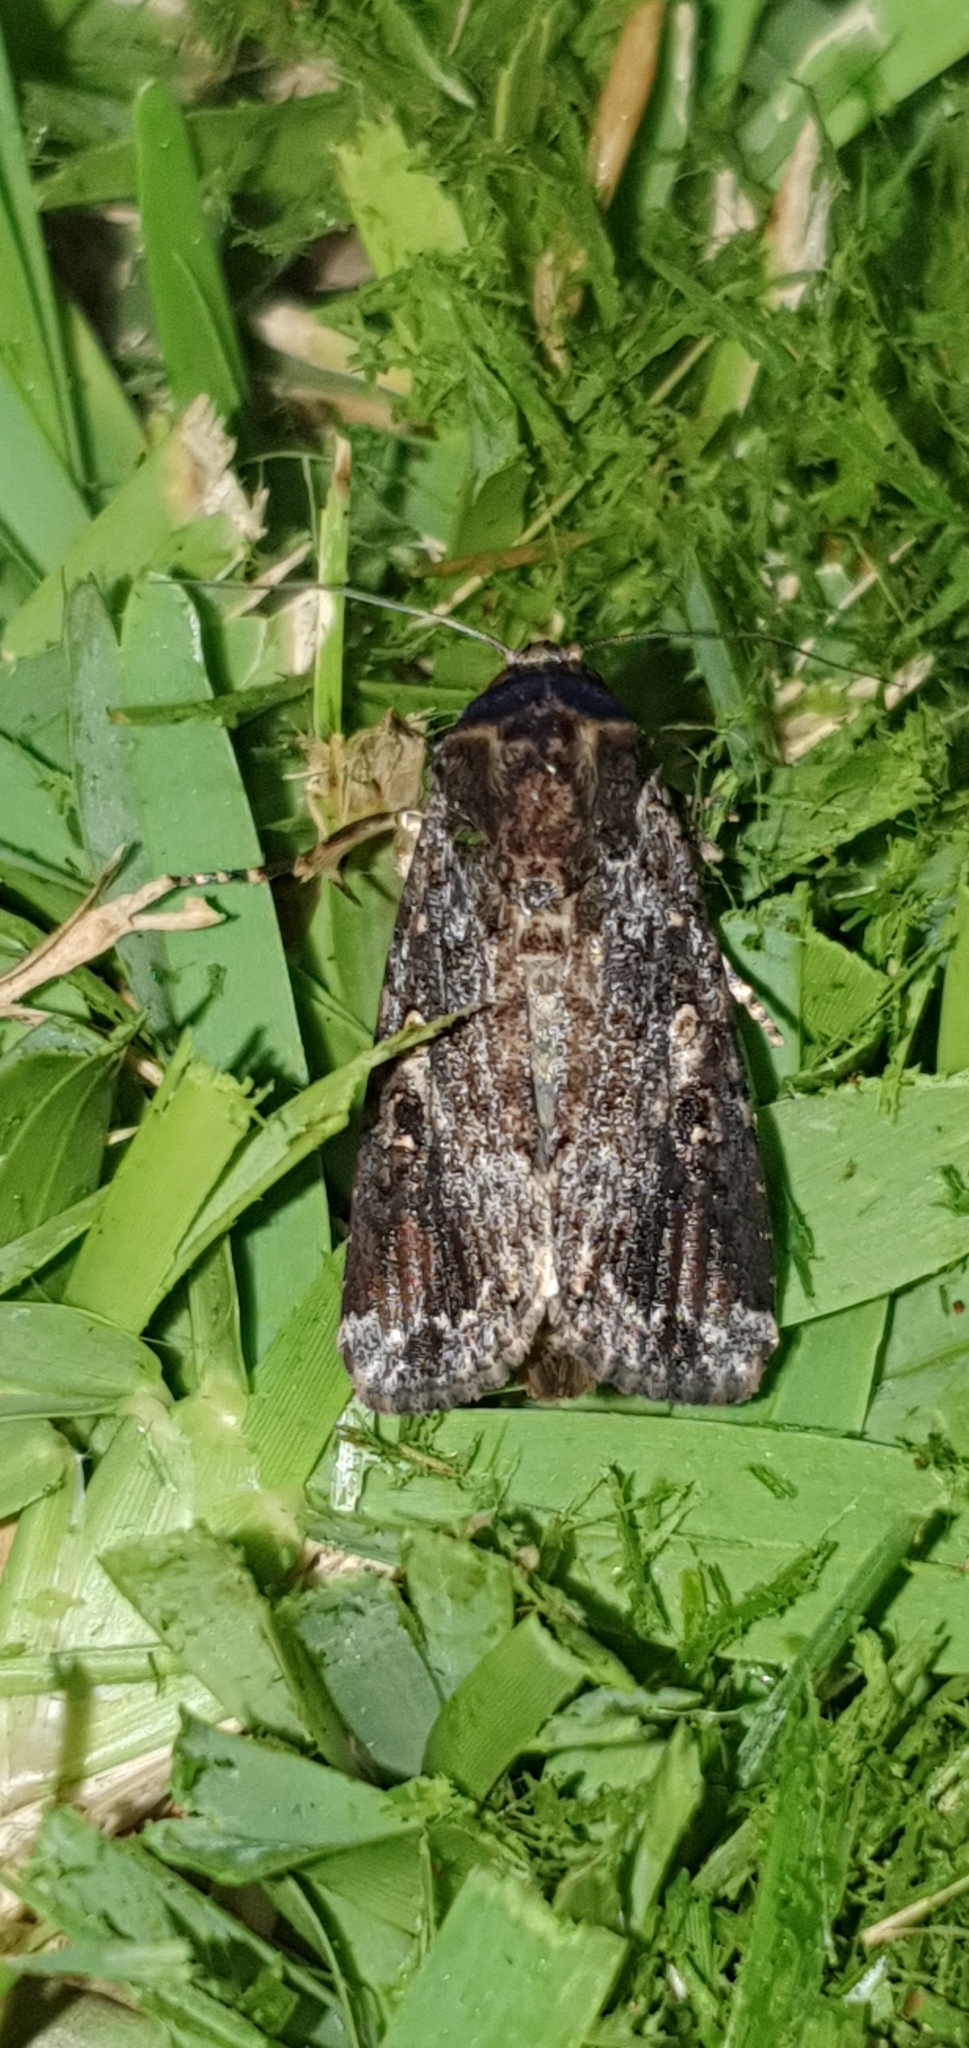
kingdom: Animalia
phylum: Arthropoda
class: Insecta
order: Lepidoptera
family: Noctuidae
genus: Spodoptera
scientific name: Spodoptera mauritia
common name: Lawn armyworm
